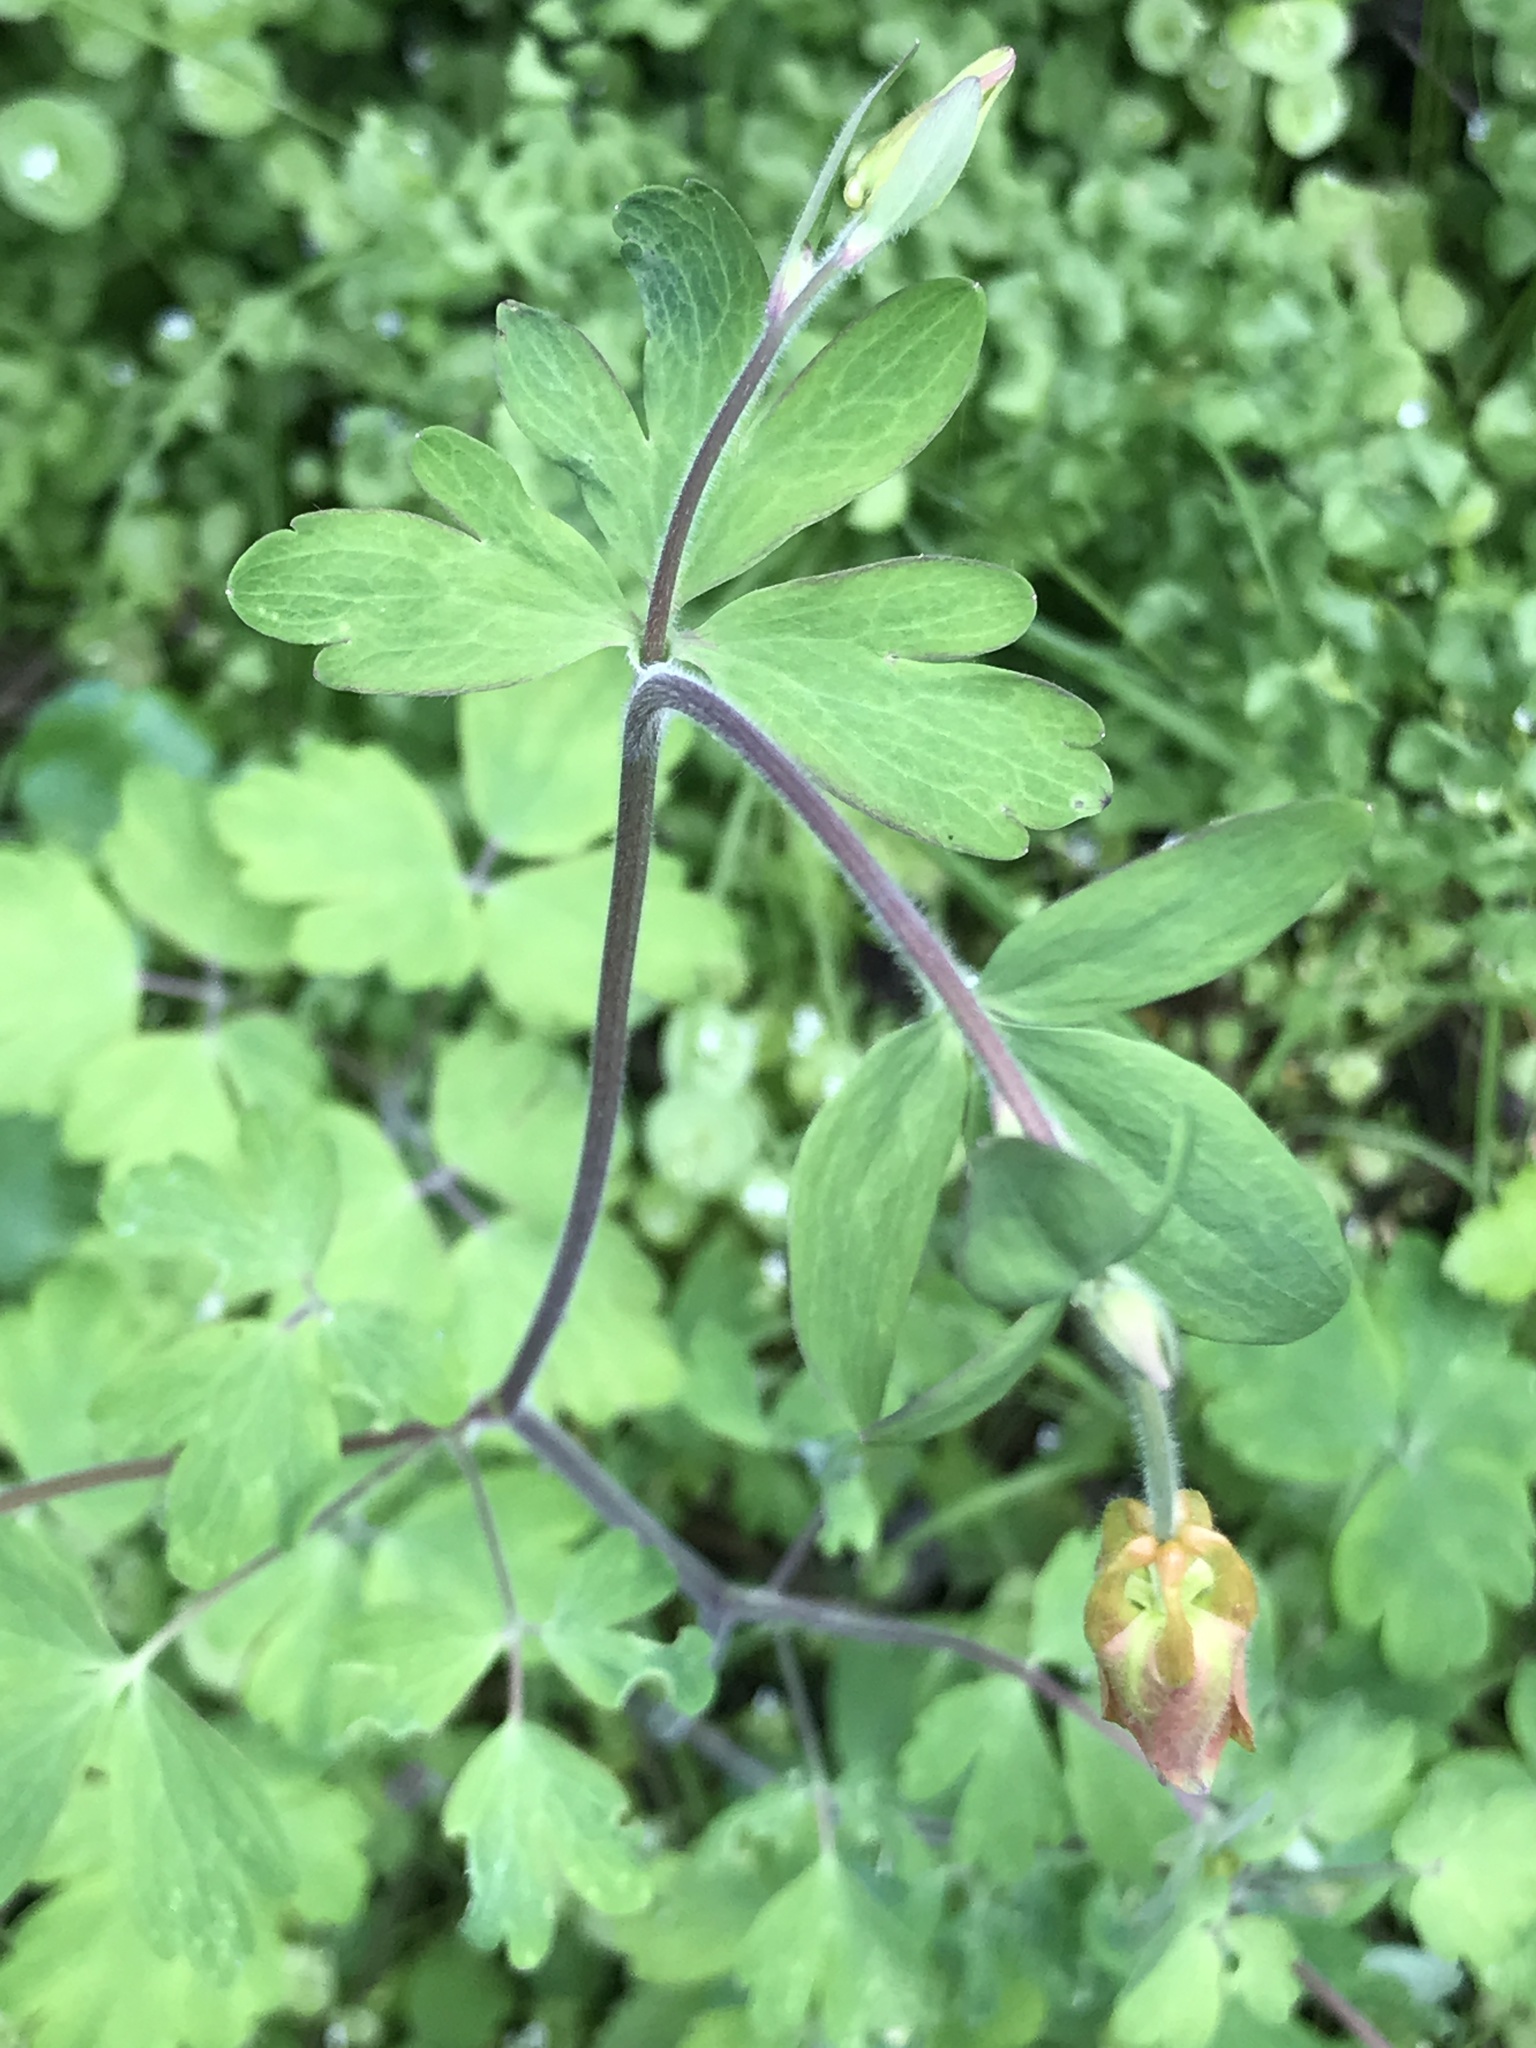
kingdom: Plantae
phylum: Tracheophyta
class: Magnoliopsida
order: Ranunculales
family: Ranunculaceae
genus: Aquilegia
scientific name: Aquilegia formosa
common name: Sitka columbine
